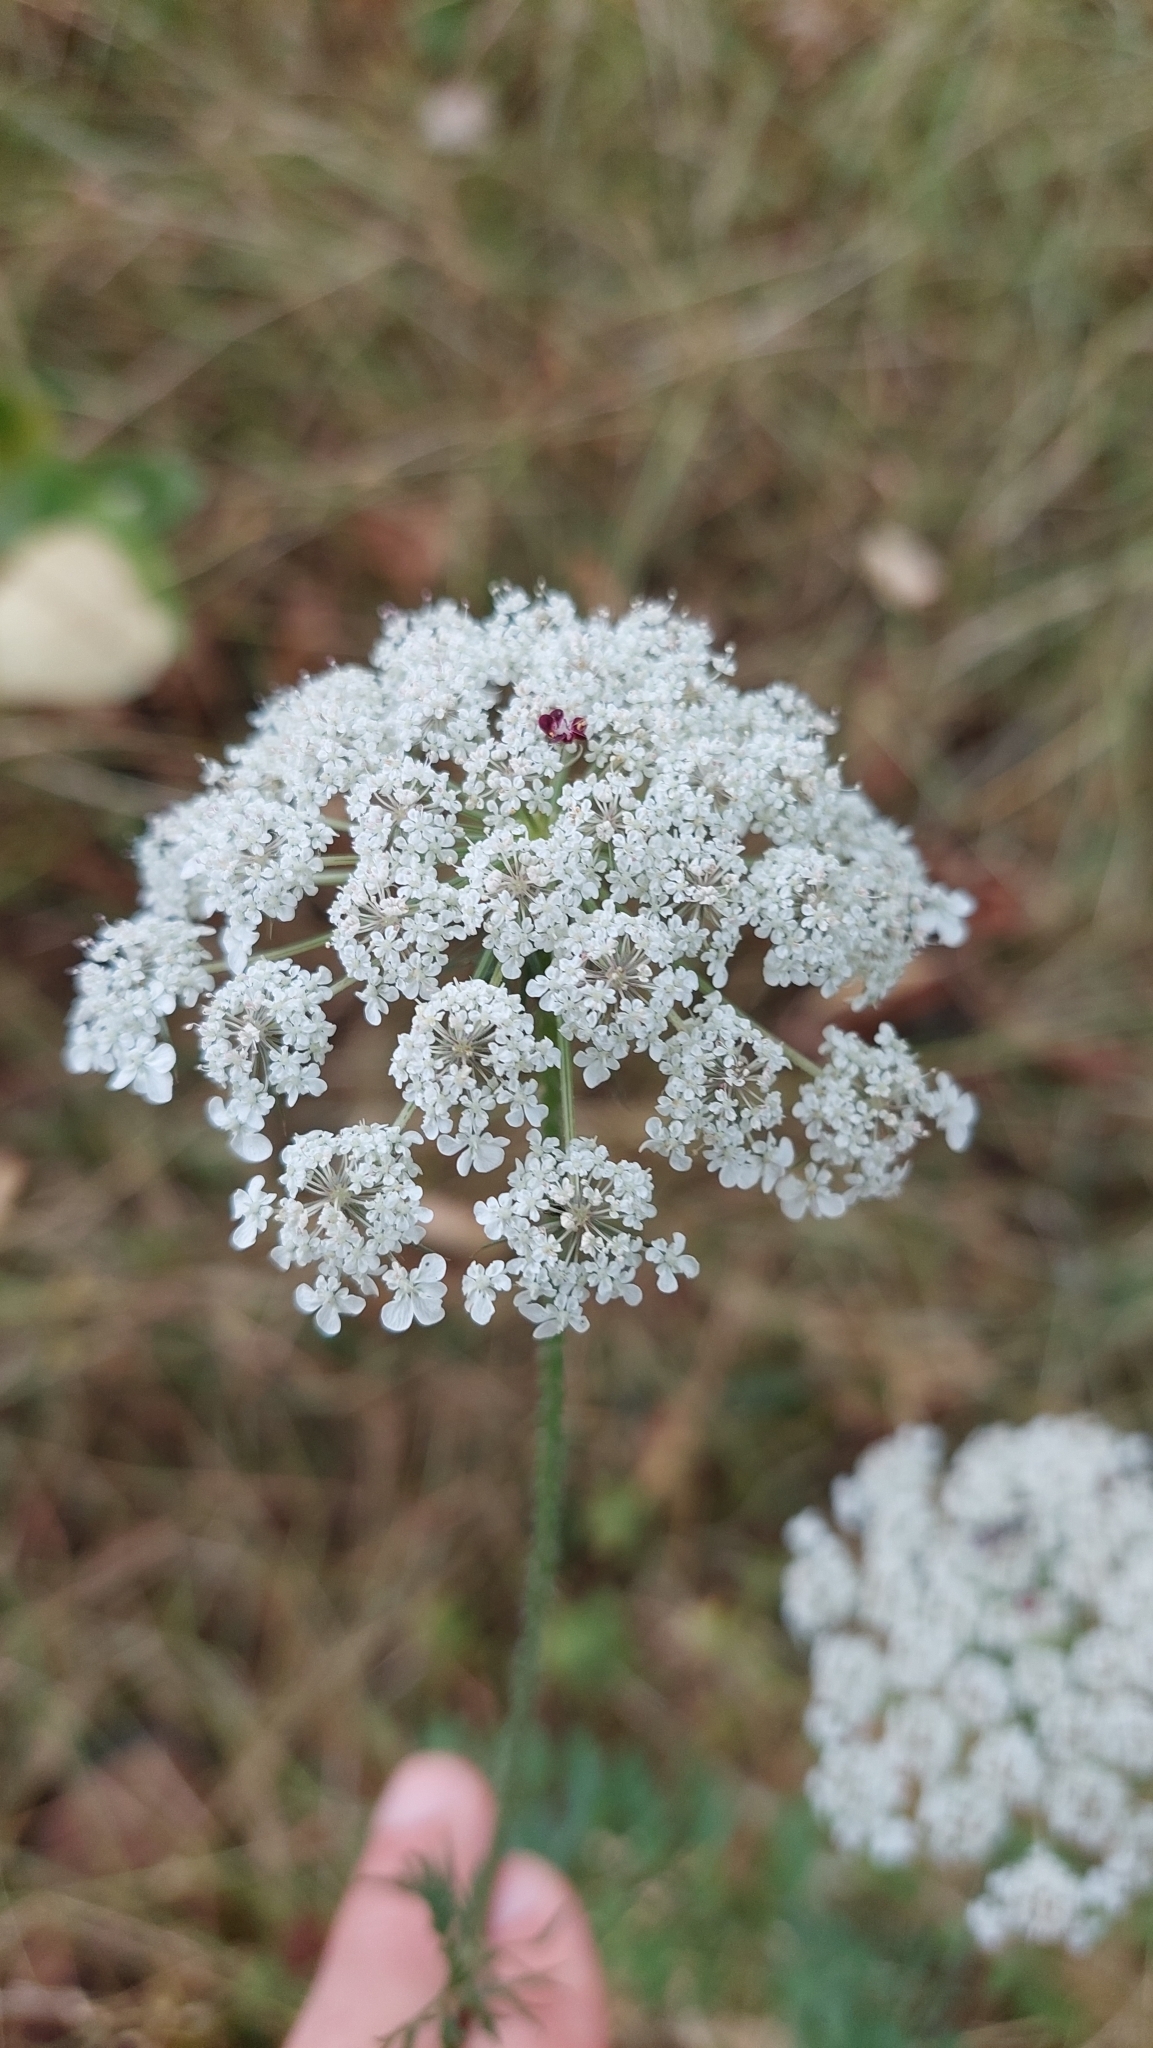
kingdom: Plantae
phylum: Tracheophyta
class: Magnoliopsida
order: Apiales
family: Apiaceae
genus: Daucus
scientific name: Daucus carota
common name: Wild carrot
